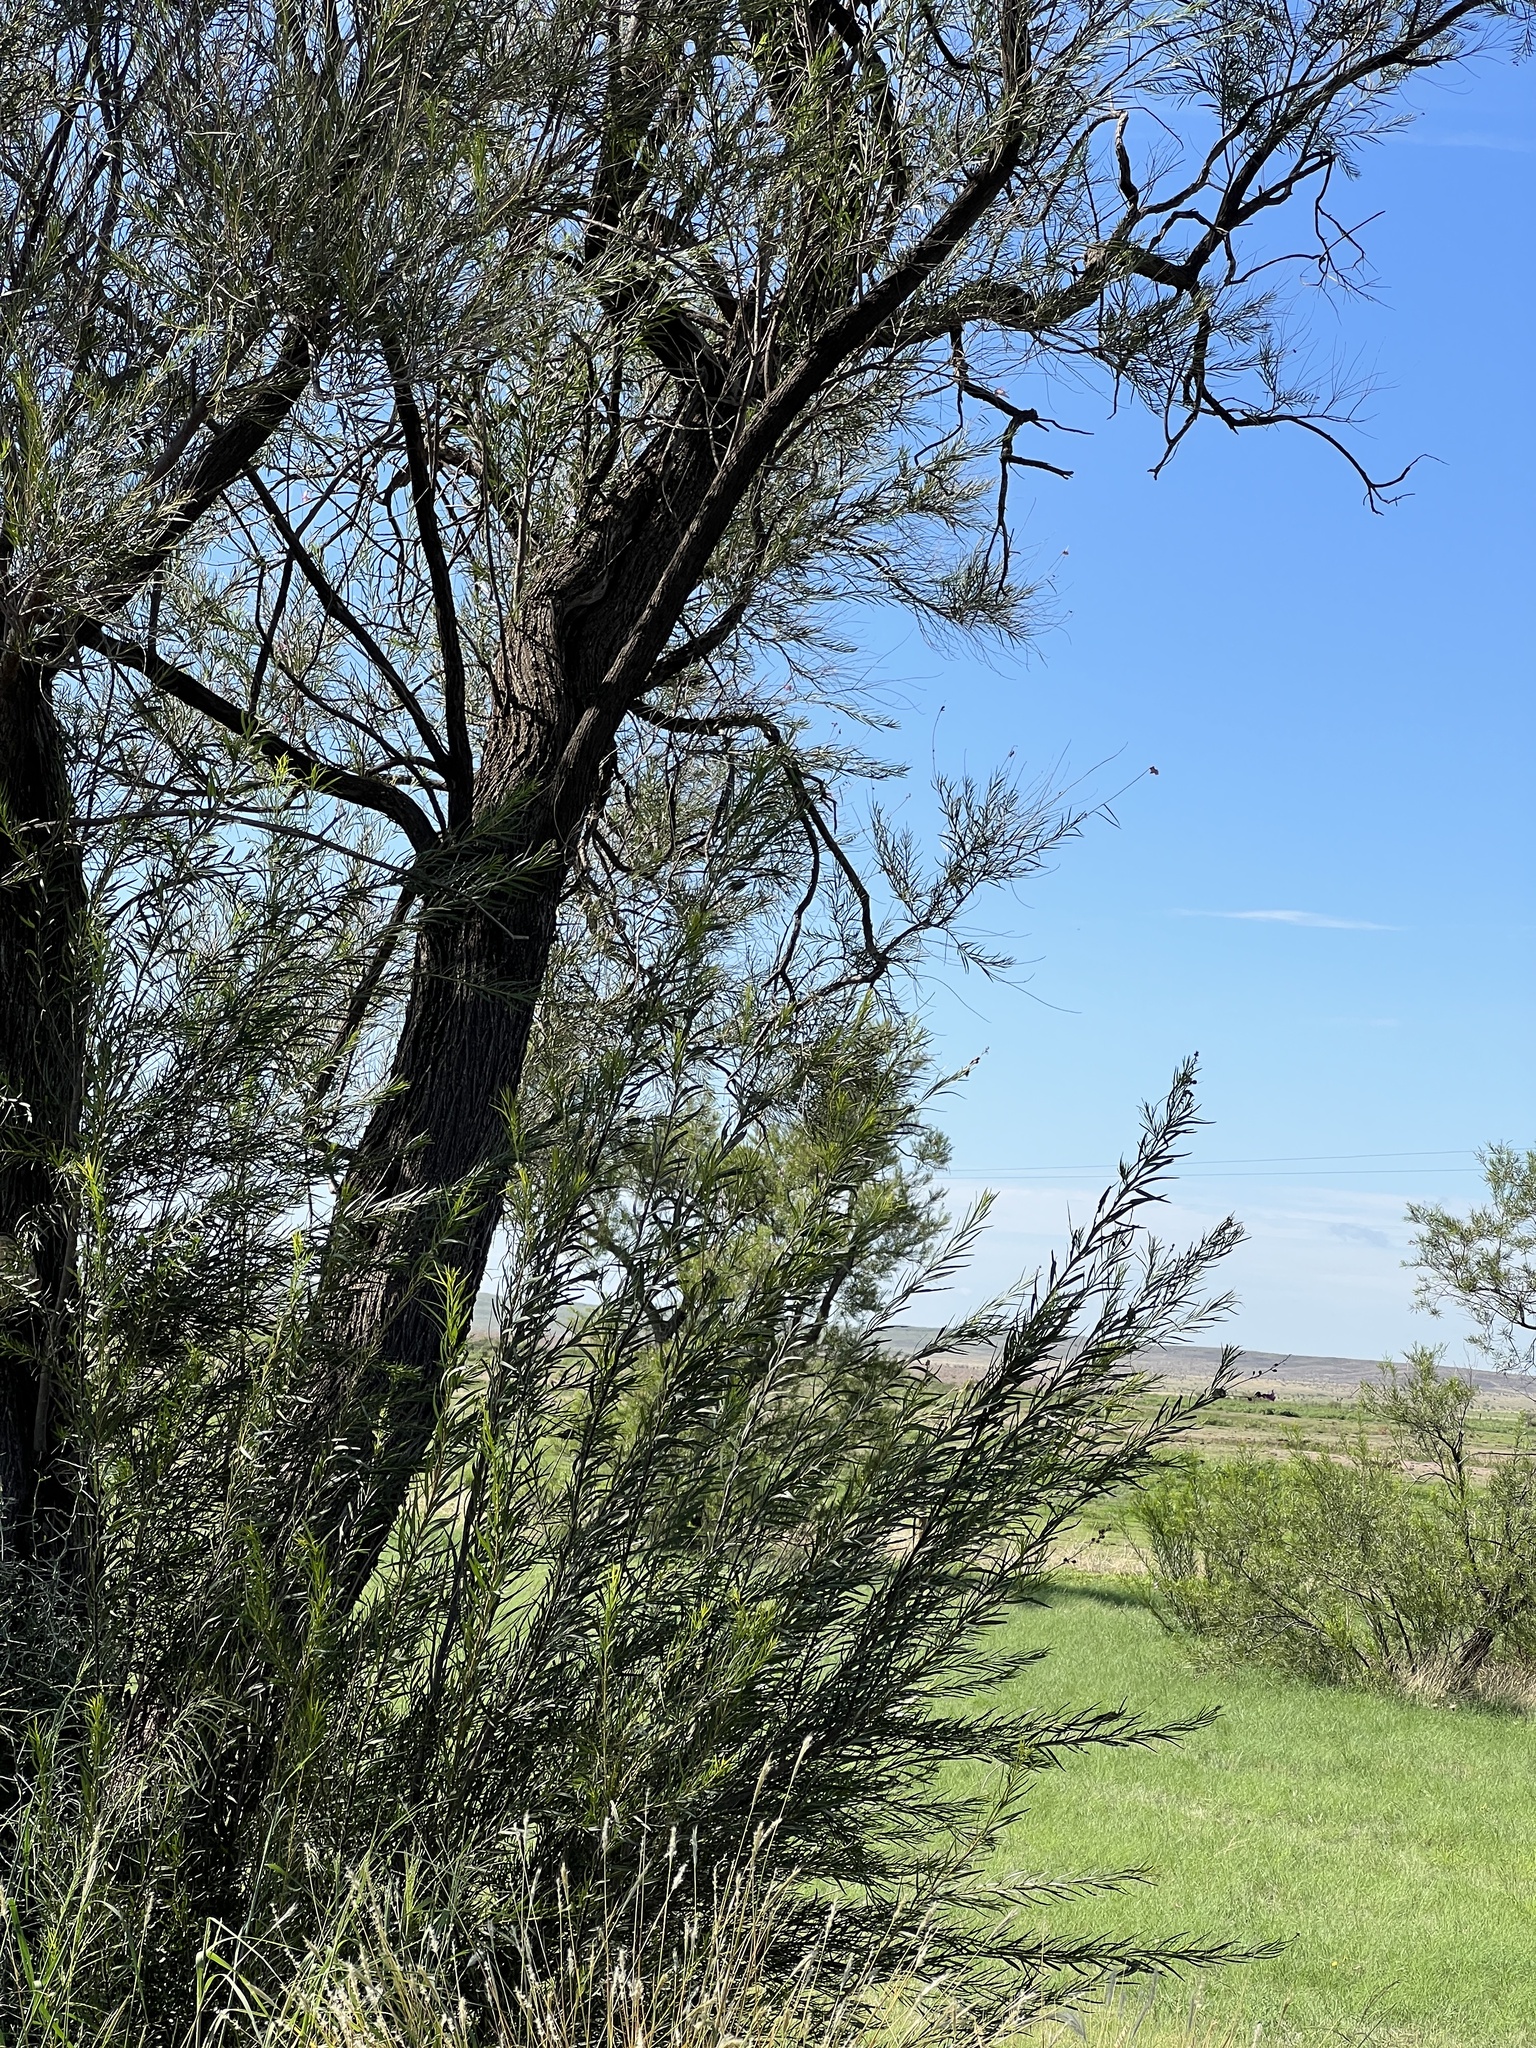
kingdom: Plantae
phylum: Tracheophyta
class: Magnoliopsida
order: Lamiales
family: Bignoniaceae
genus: Chilopsis
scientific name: Chilopsis linearis
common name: Desert-willow
